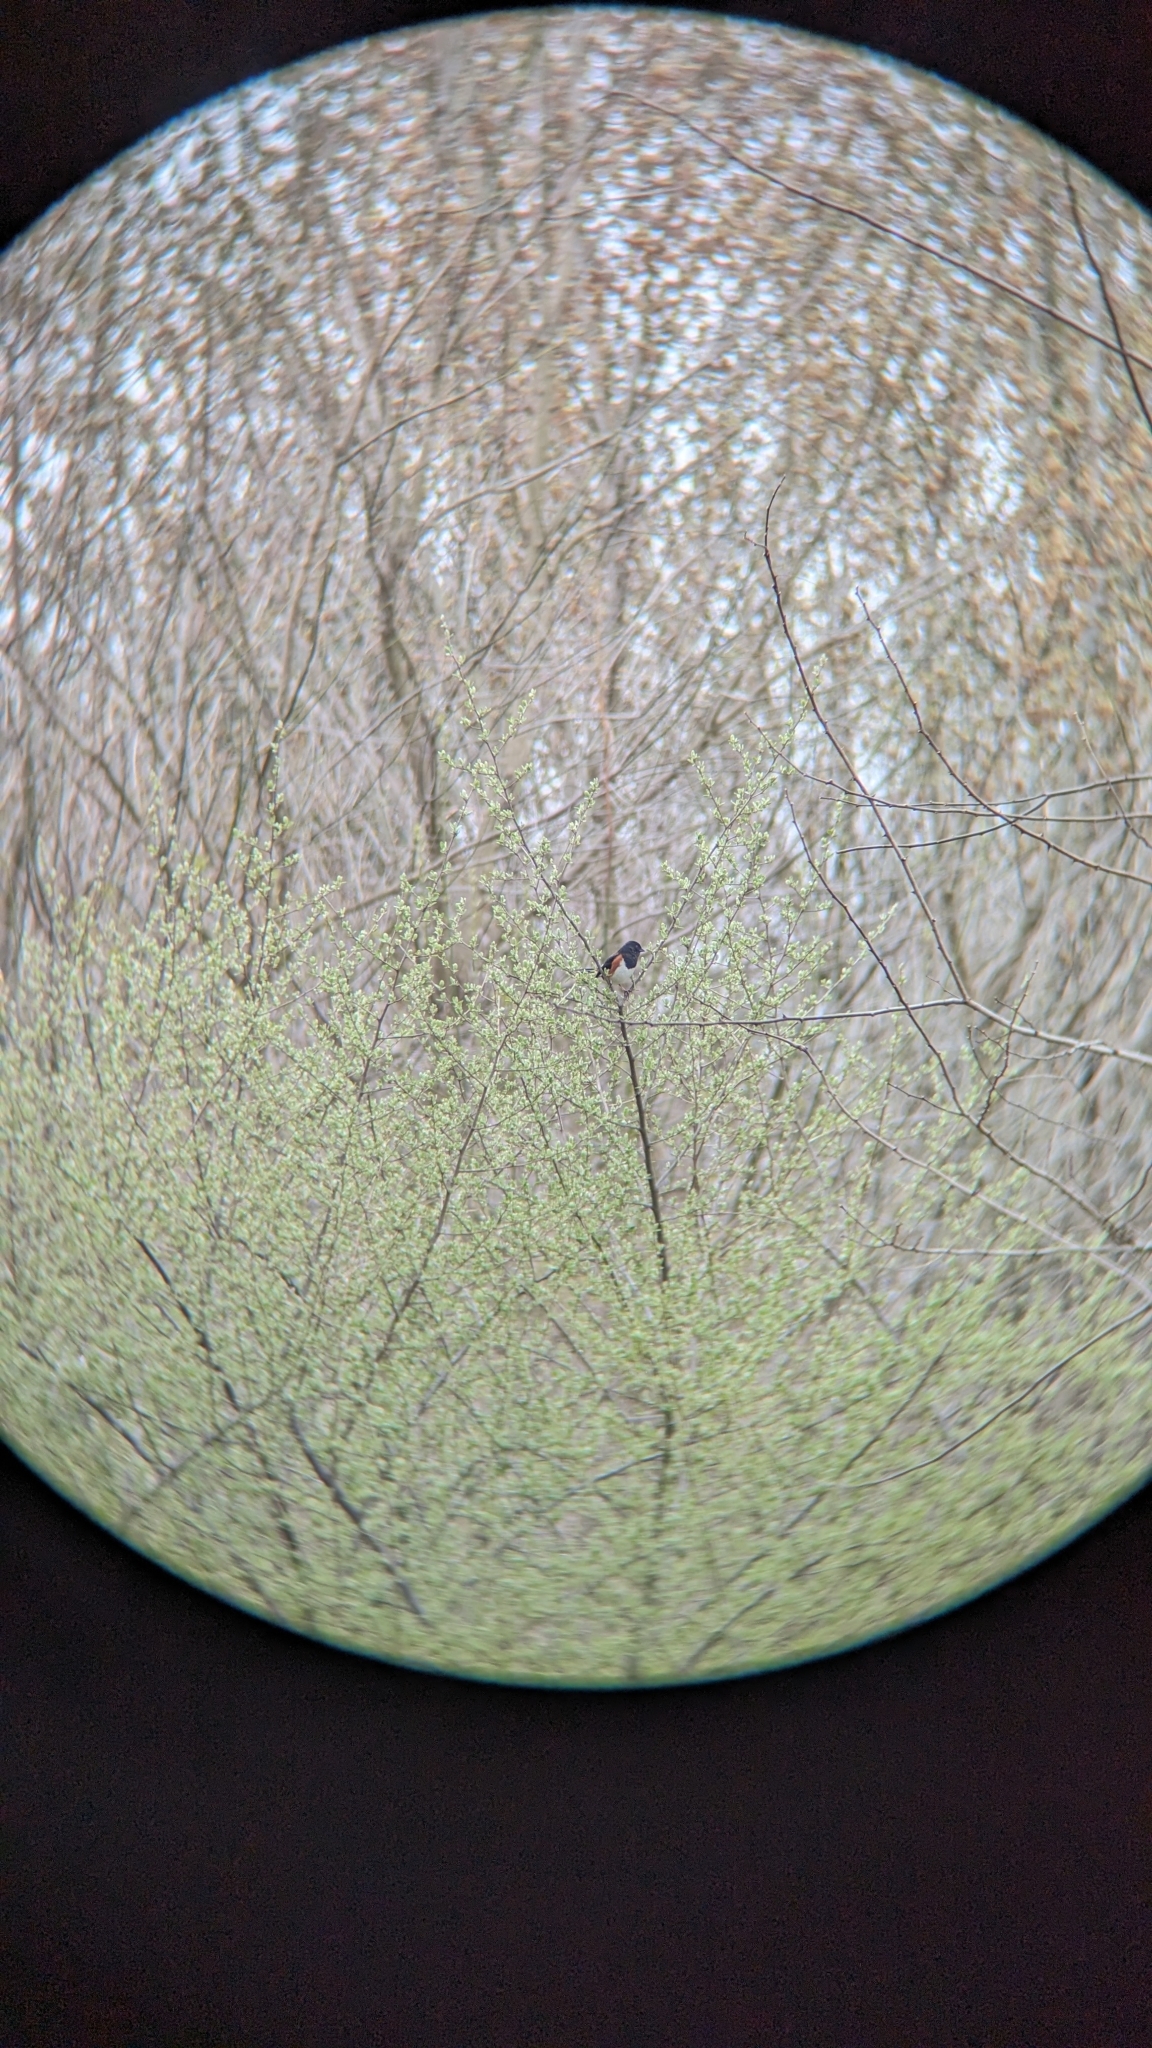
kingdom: Animalia
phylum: Chordata
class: Aves
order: Passeriformes
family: Passerellidae
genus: Pipilo
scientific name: Pipilo erythrophthalmus
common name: Eastern towhee
